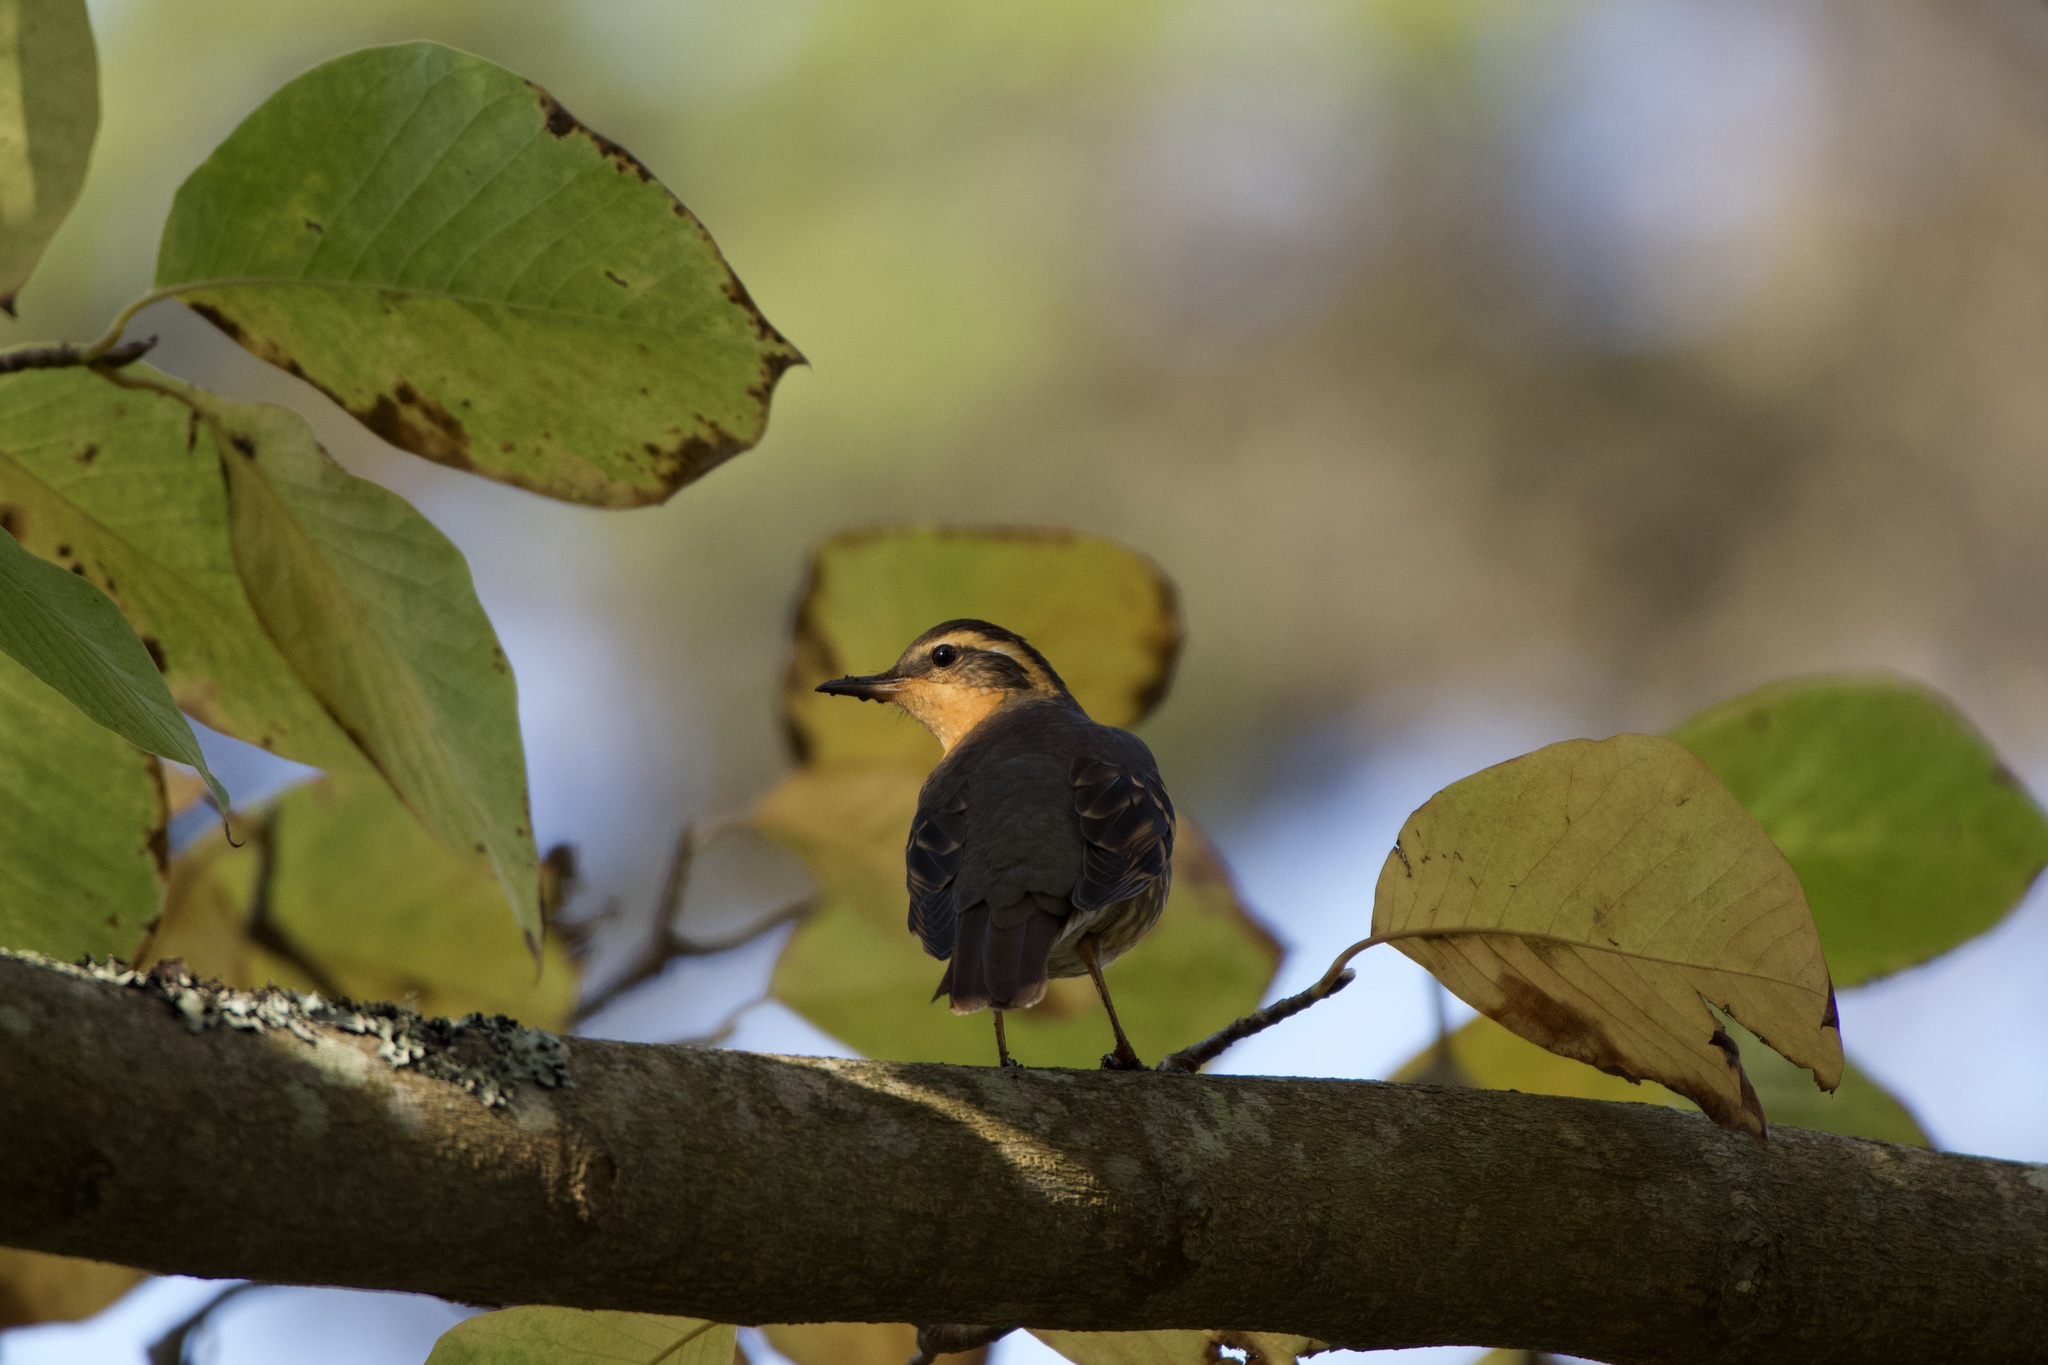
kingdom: Animalia
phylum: Chordata
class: Aves
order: Passeriformes
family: Turdidae
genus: Ixoreus
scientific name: Ixoreus naevius
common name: Varied thrush
